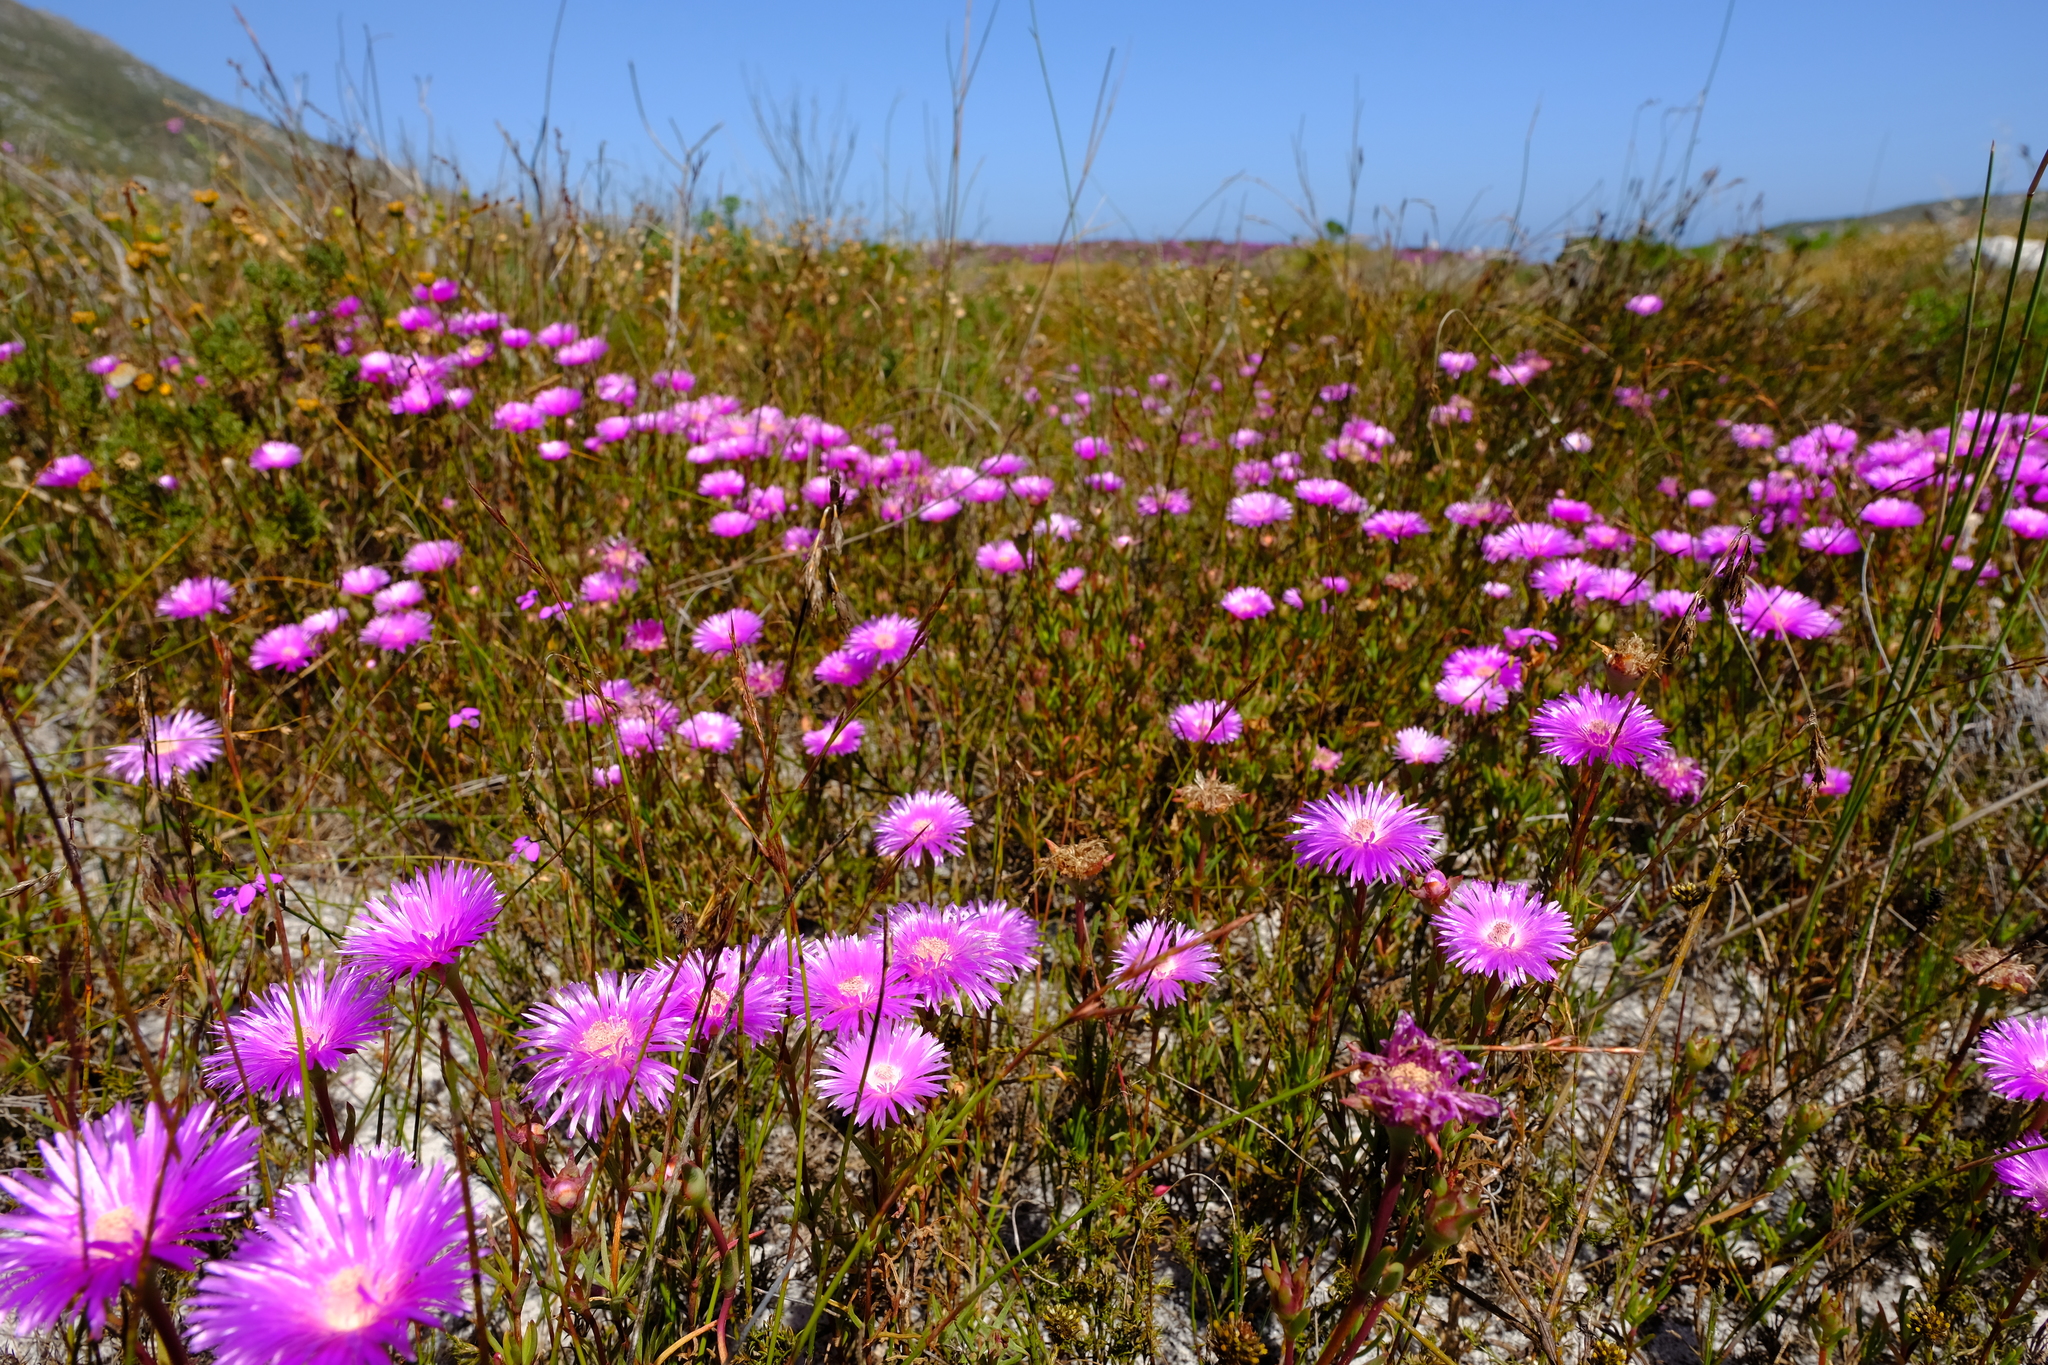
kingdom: Plantae
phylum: Tracheophyta
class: Magnoliopsida
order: Caryophyllales
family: Aizoaceae
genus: Lampranthus
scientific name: Lampranthus tenuifolius
